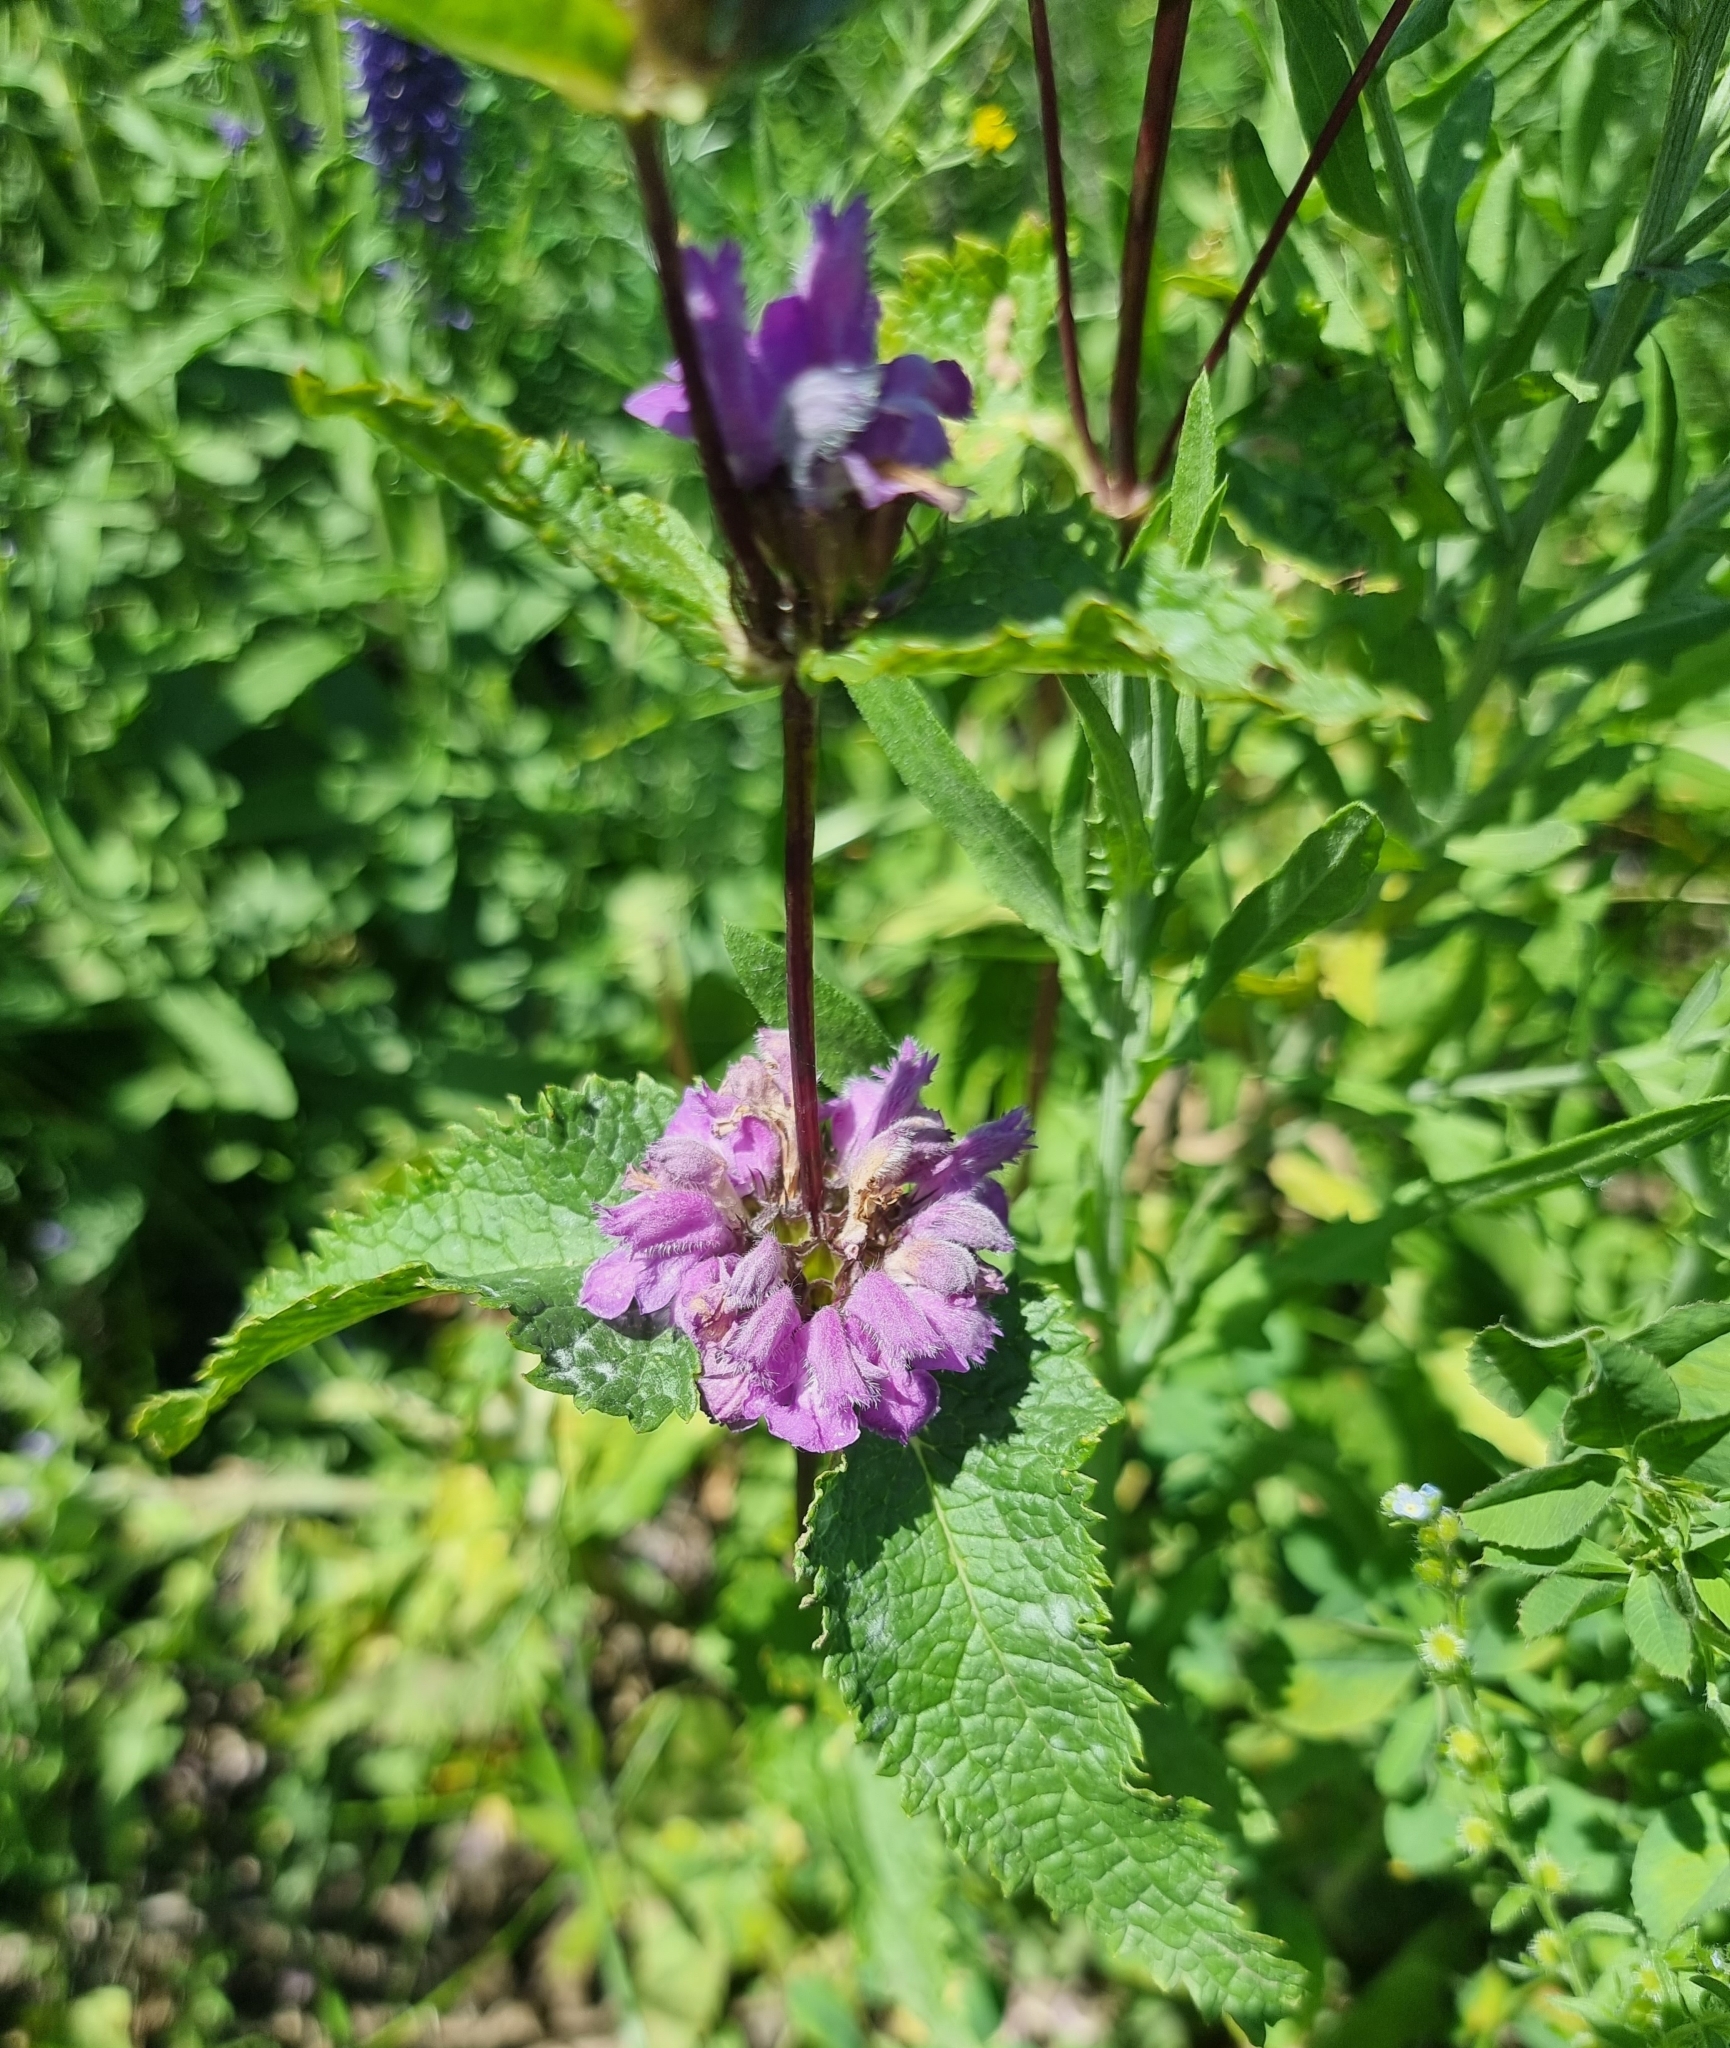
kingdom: Plantae
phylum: Tracheophyta
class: Magnoliopsida
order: Lamiales
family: Lamiaceae
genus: Phlomoides
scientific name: Phlomoides tuberosa
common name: Tuberous jerusalem sage
